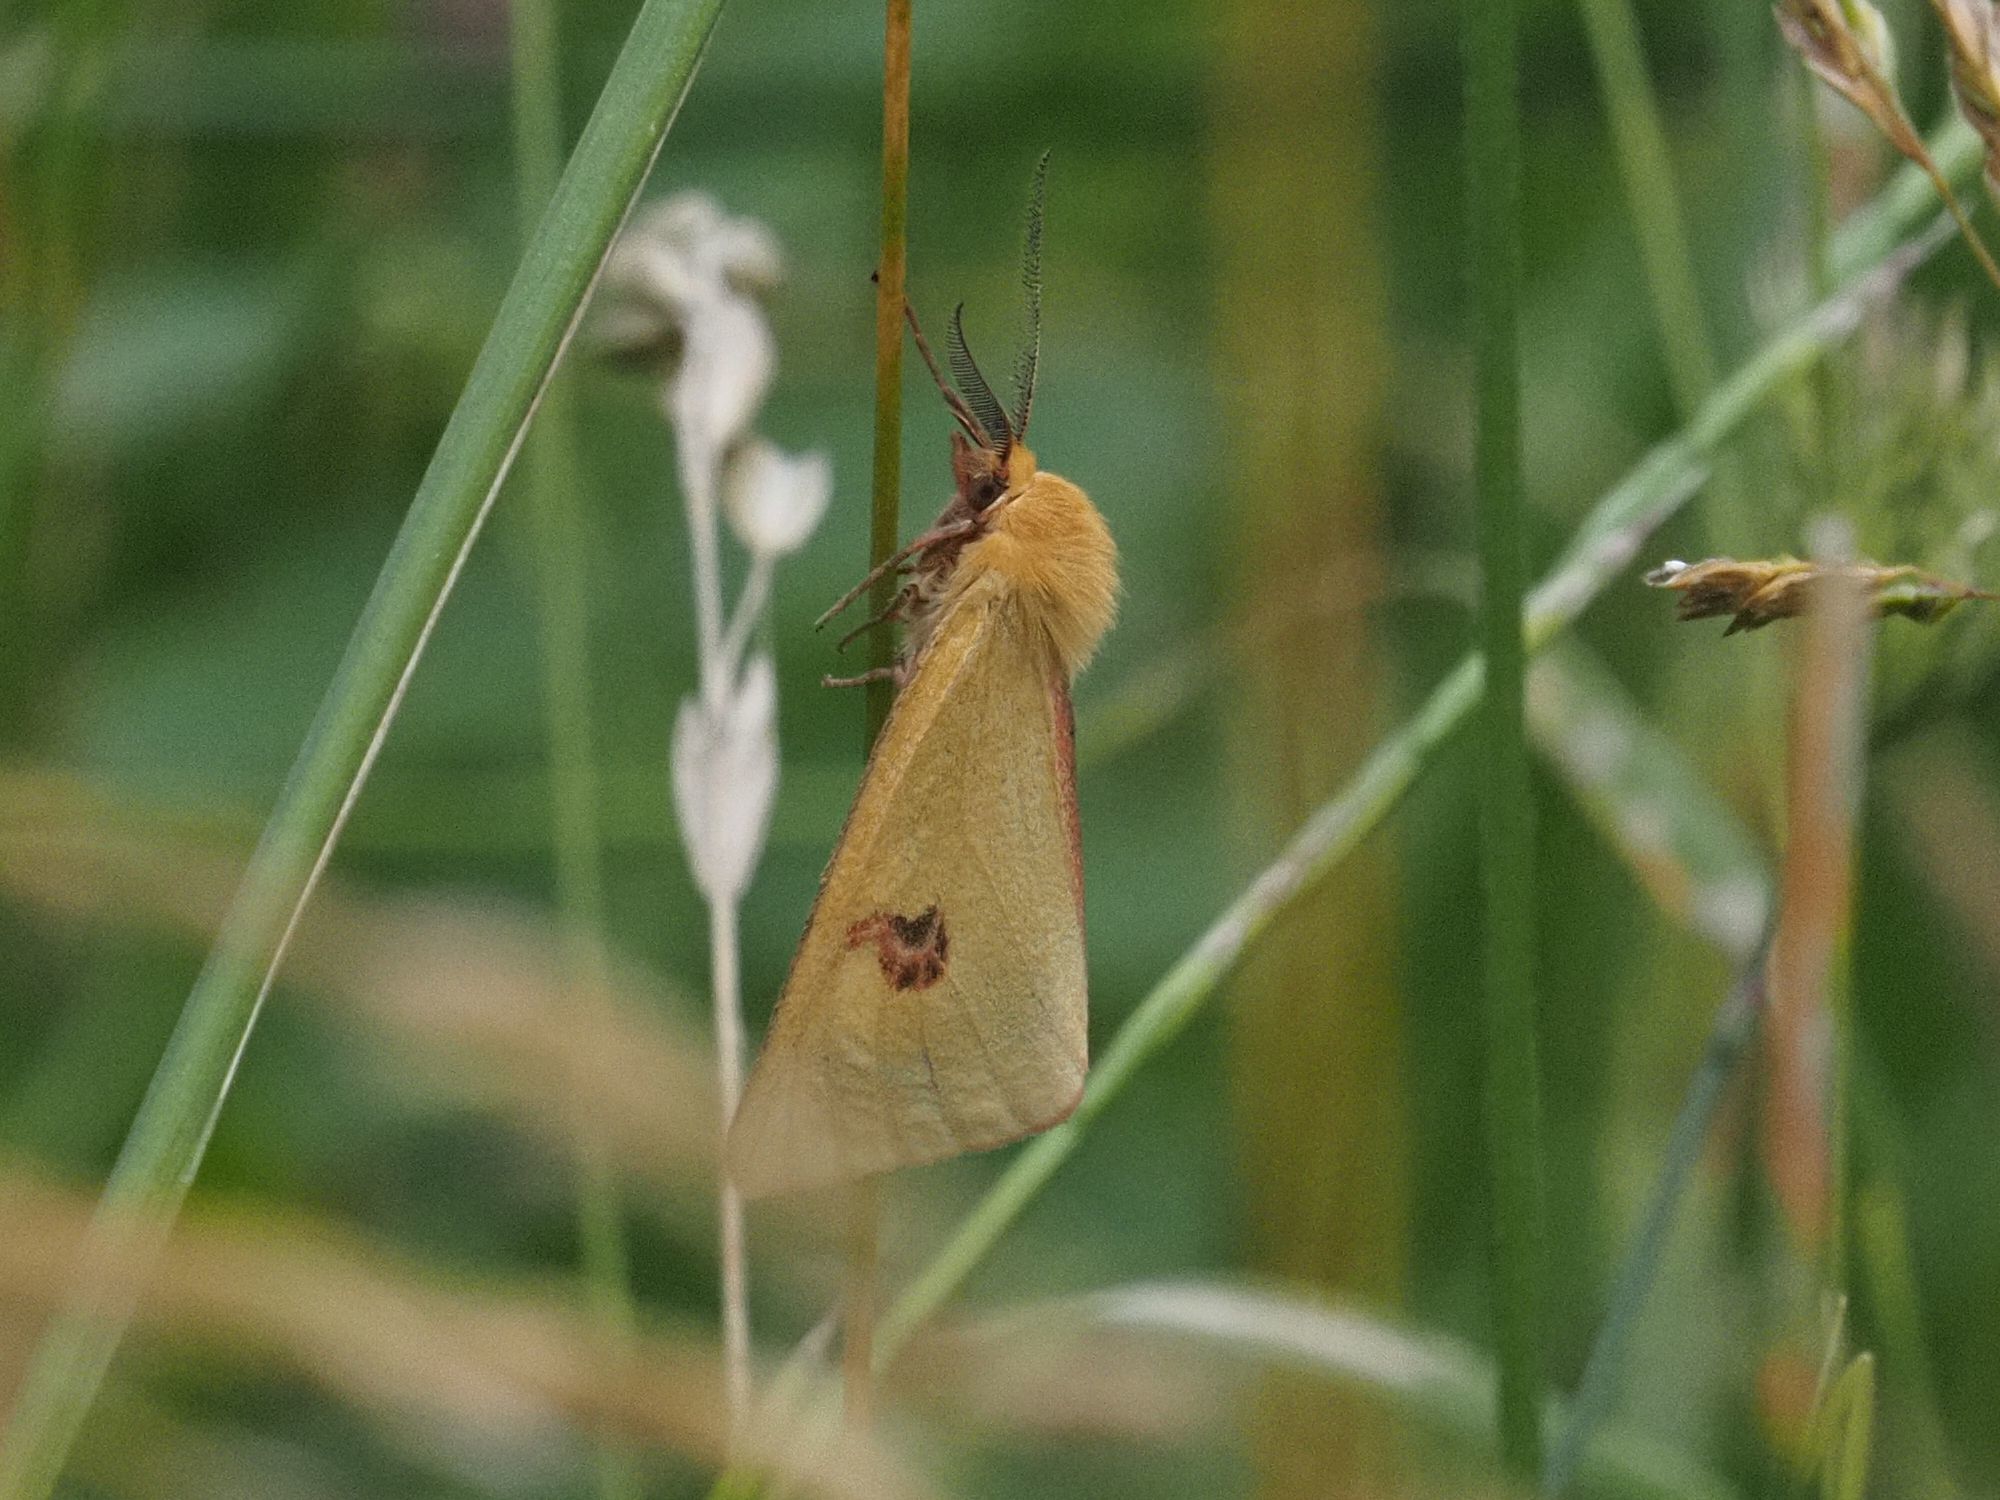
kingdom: Animalia
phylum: Arthropoda
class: Insecta
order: Lepidoptera
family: Erebidae
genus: Diacrisia
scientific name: Diacrisia sannio
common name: Clouded buff
